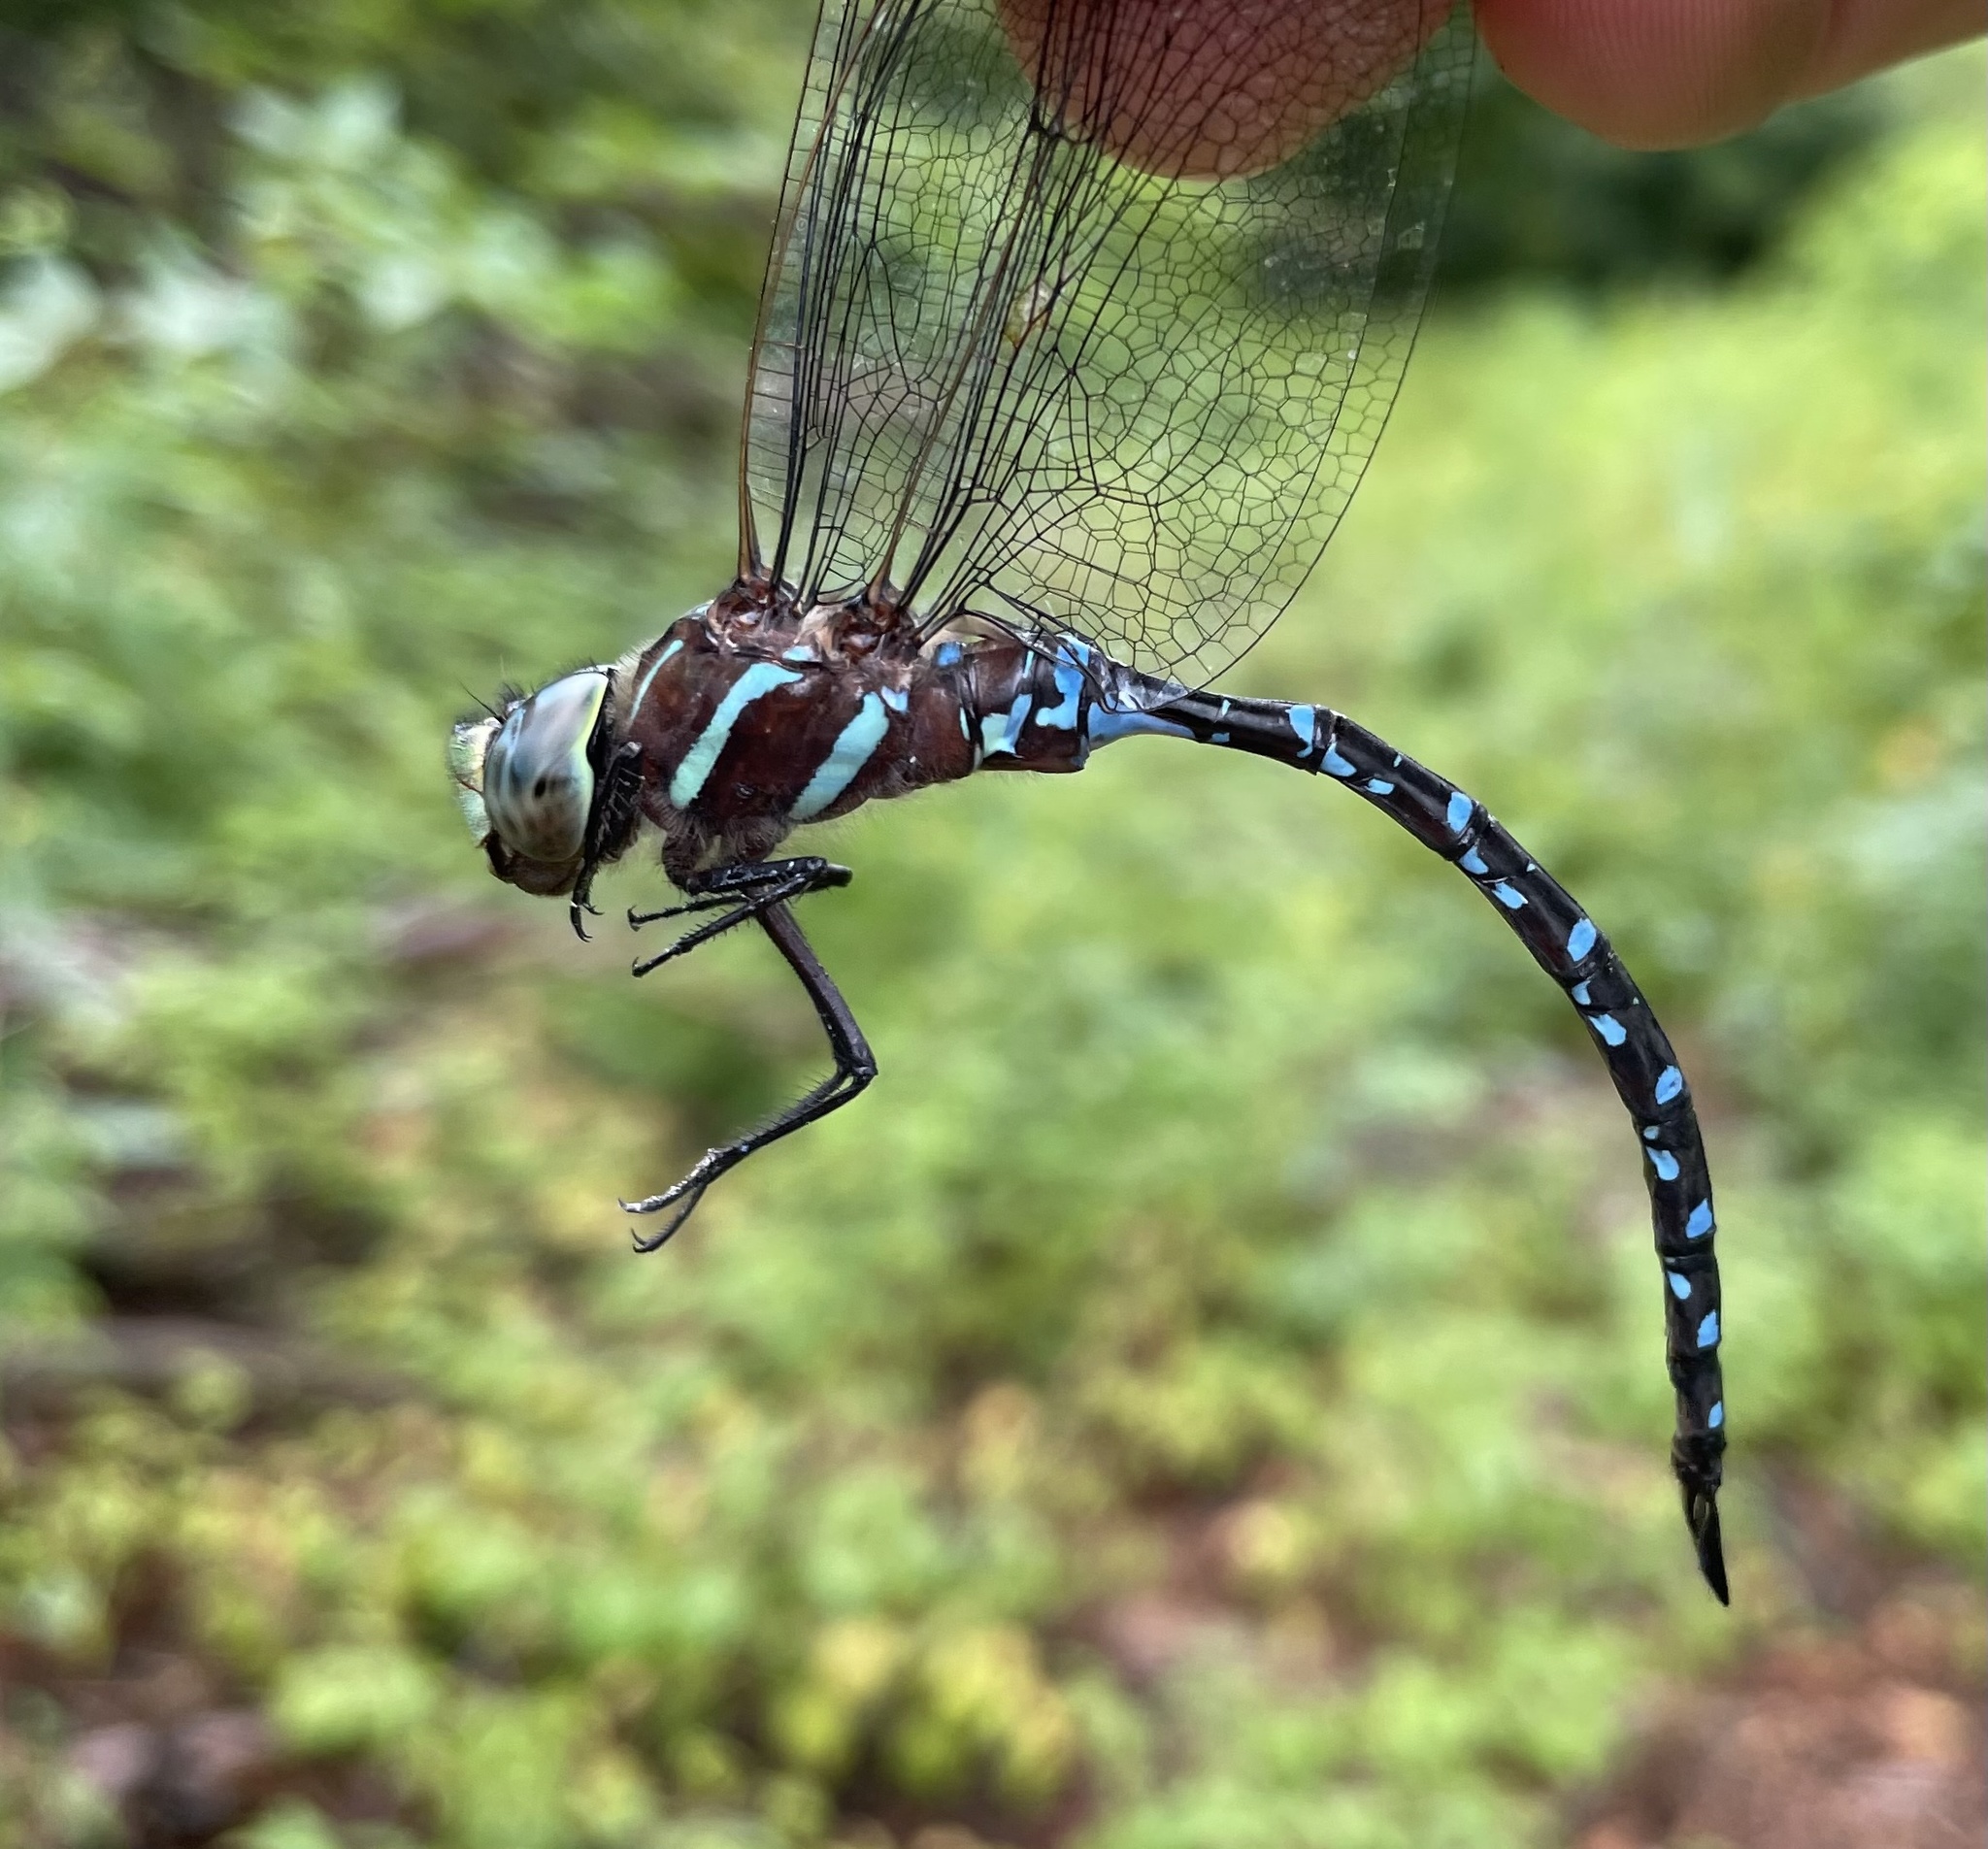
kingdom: Animalia
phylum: Arthropoda
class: Insecta
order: Odonata
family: Aeshnidae
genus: Aeshna
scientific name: Aeshna tuberculifera
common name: Aeschne à tubercules
